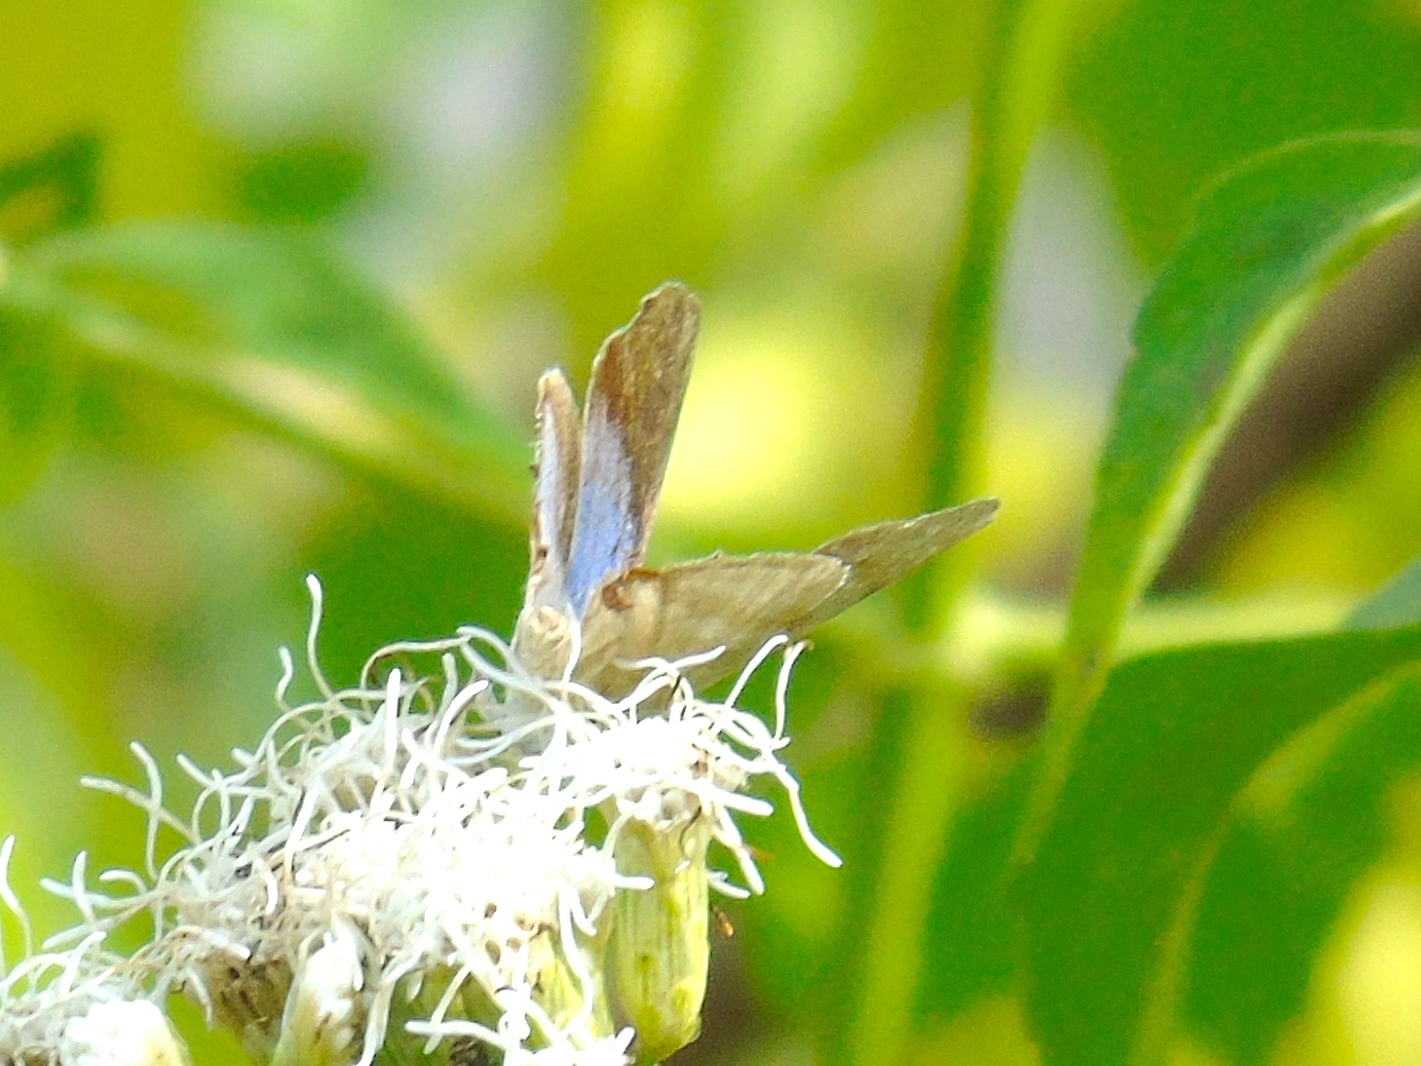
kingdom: Animalia
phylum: Arthropoda
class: Insecta
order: Lepidoptera
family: Lycaenidae
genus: Dolymorpha
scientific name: Dolymorpha jada
